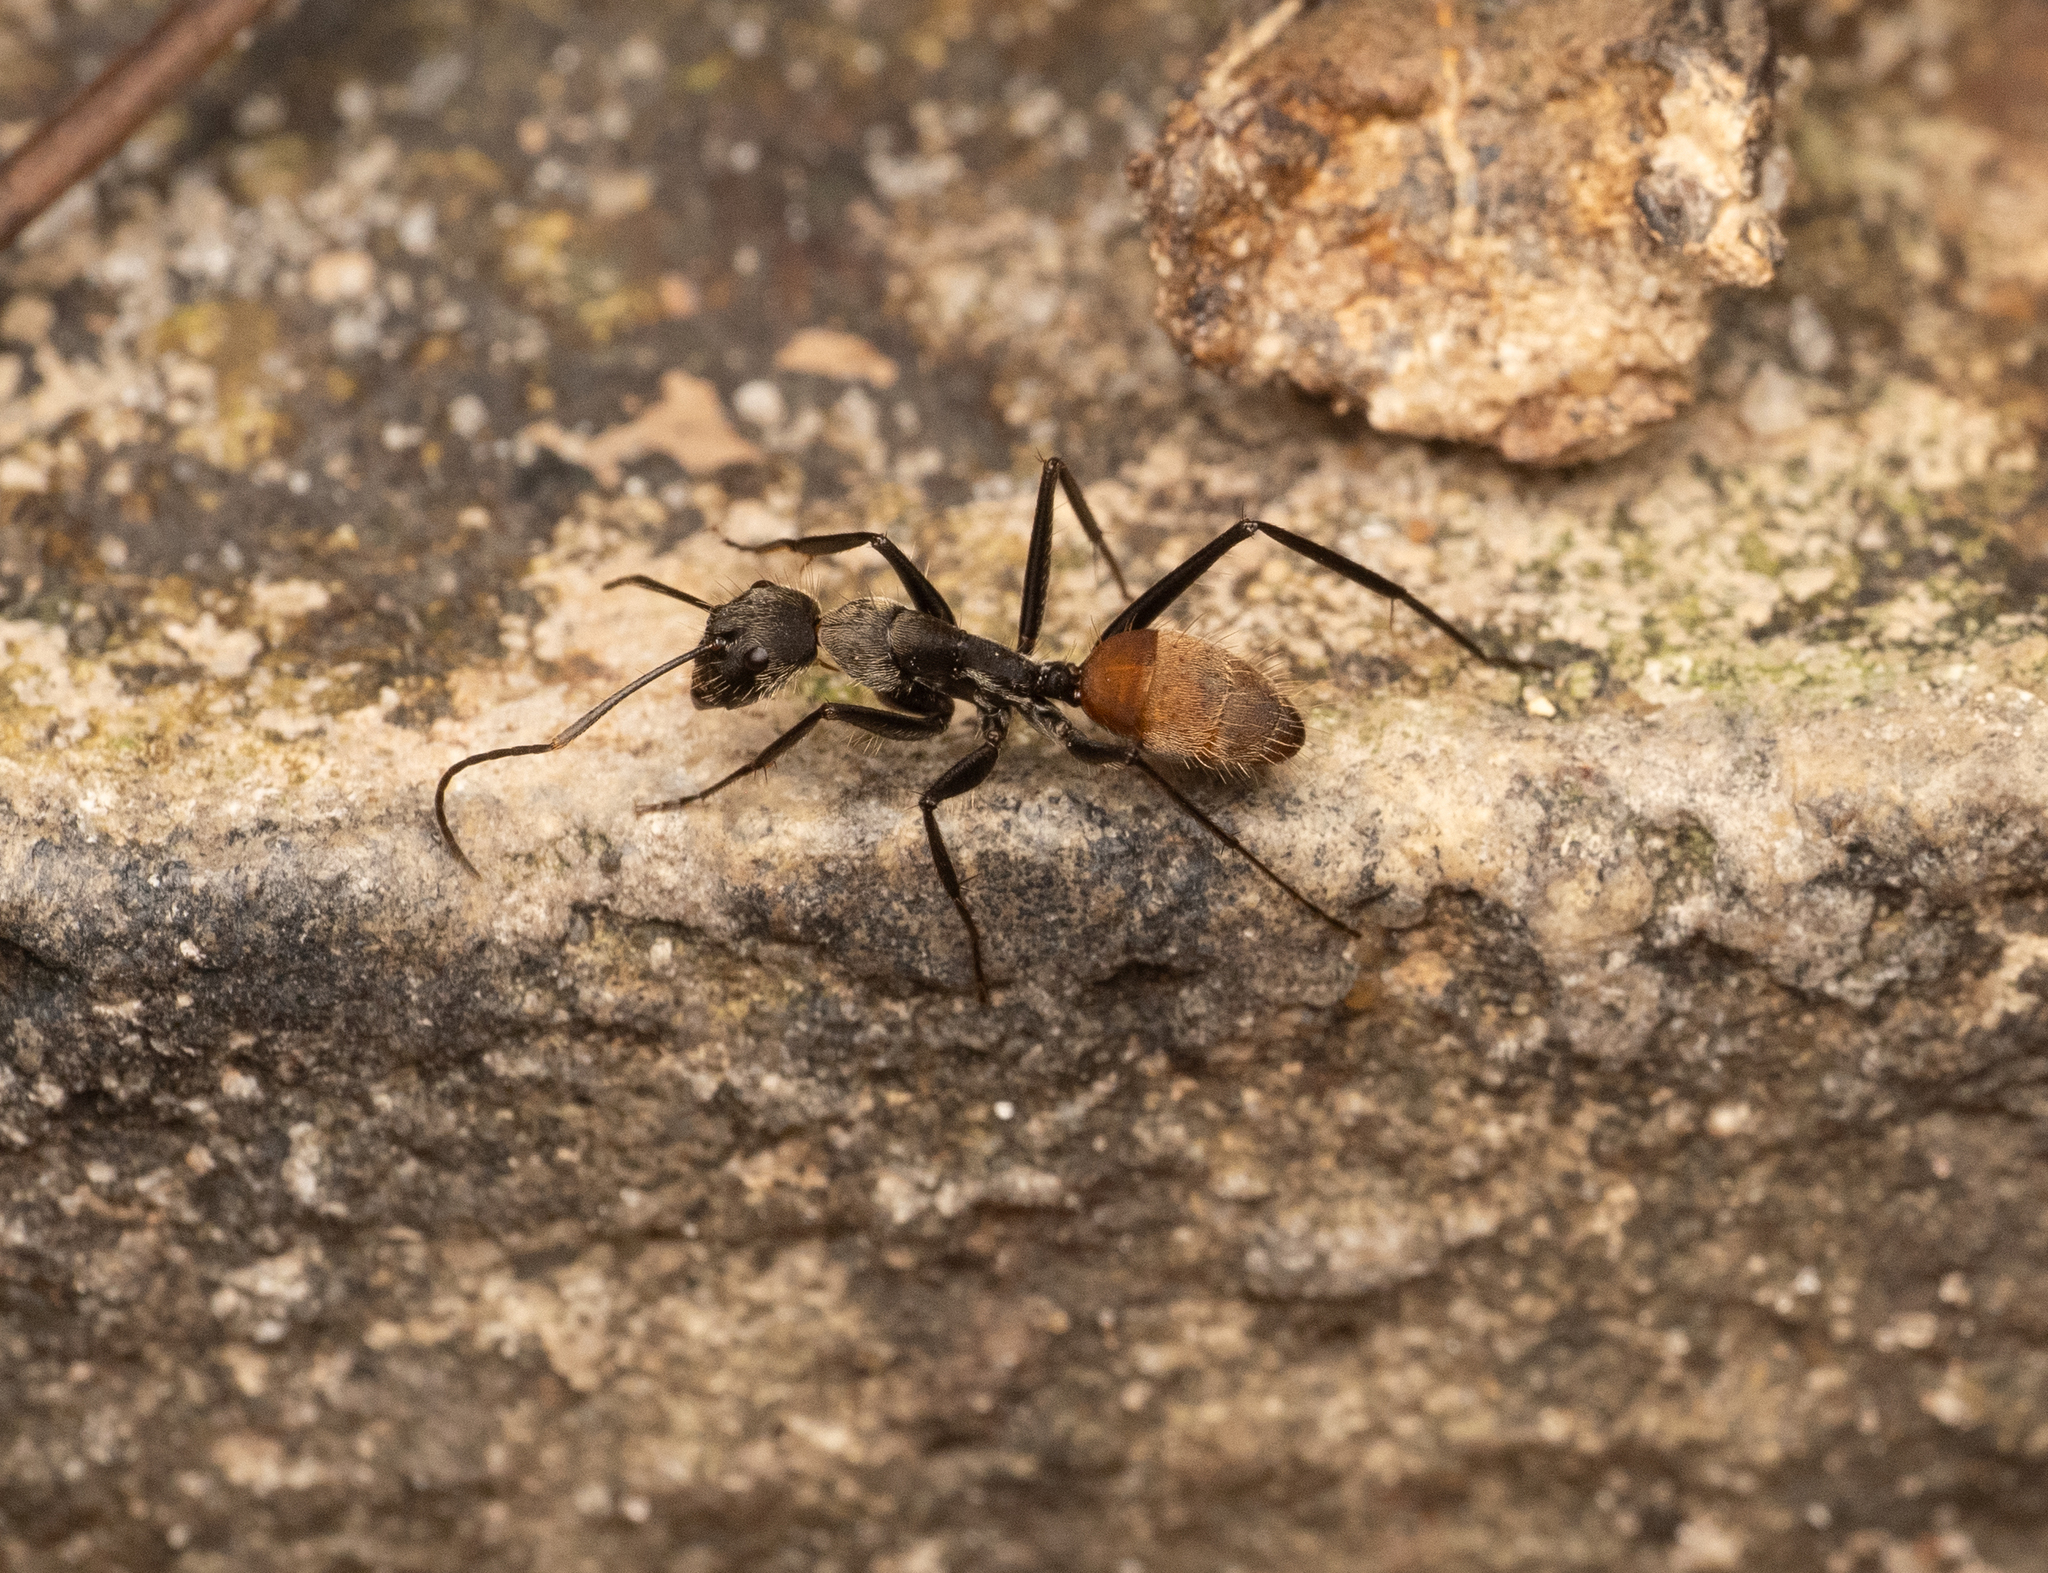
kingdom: Animalia
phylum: Arthropoda
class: Insecta
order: Hymenoptera
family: Formicidae
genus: Camponotus
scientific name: Camponotus rapax
